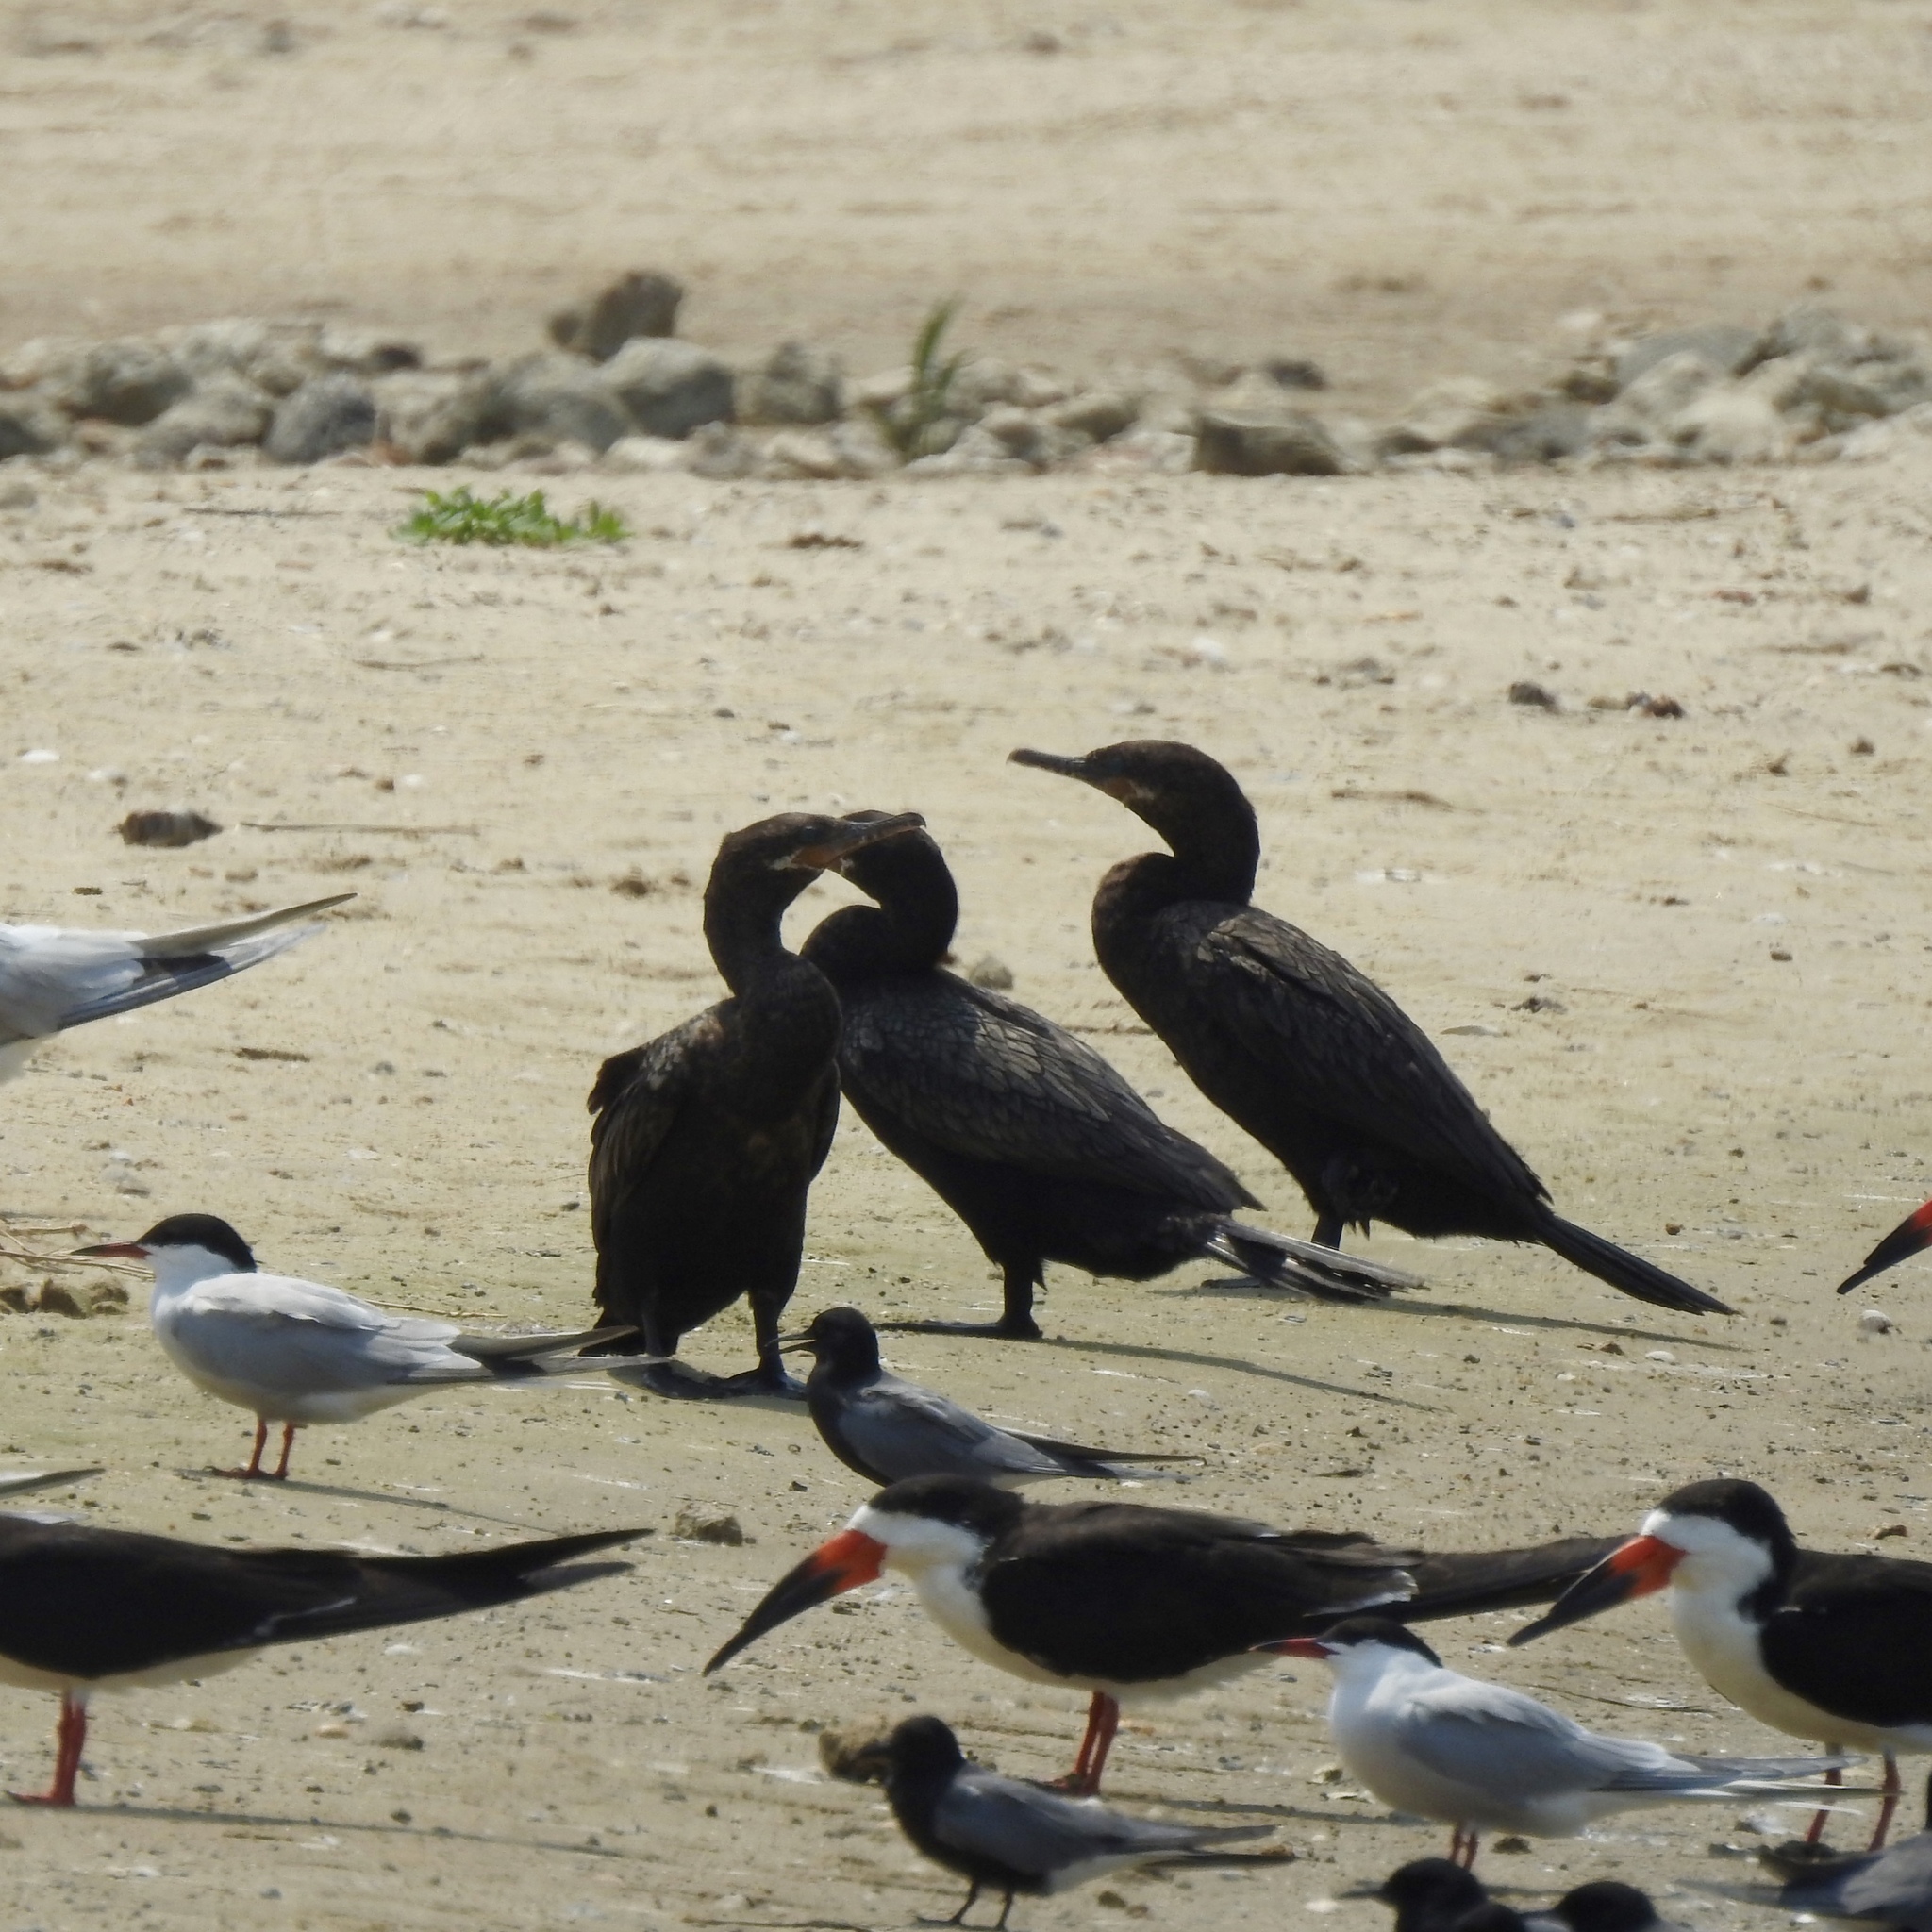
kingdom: Animalia
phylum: Chordata
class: Aves
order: Suliformes
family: Phalacrocoracidae
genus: Phalacrocorax
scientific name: Phalacrocorax brasilianus
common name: Neotropic cormorant
